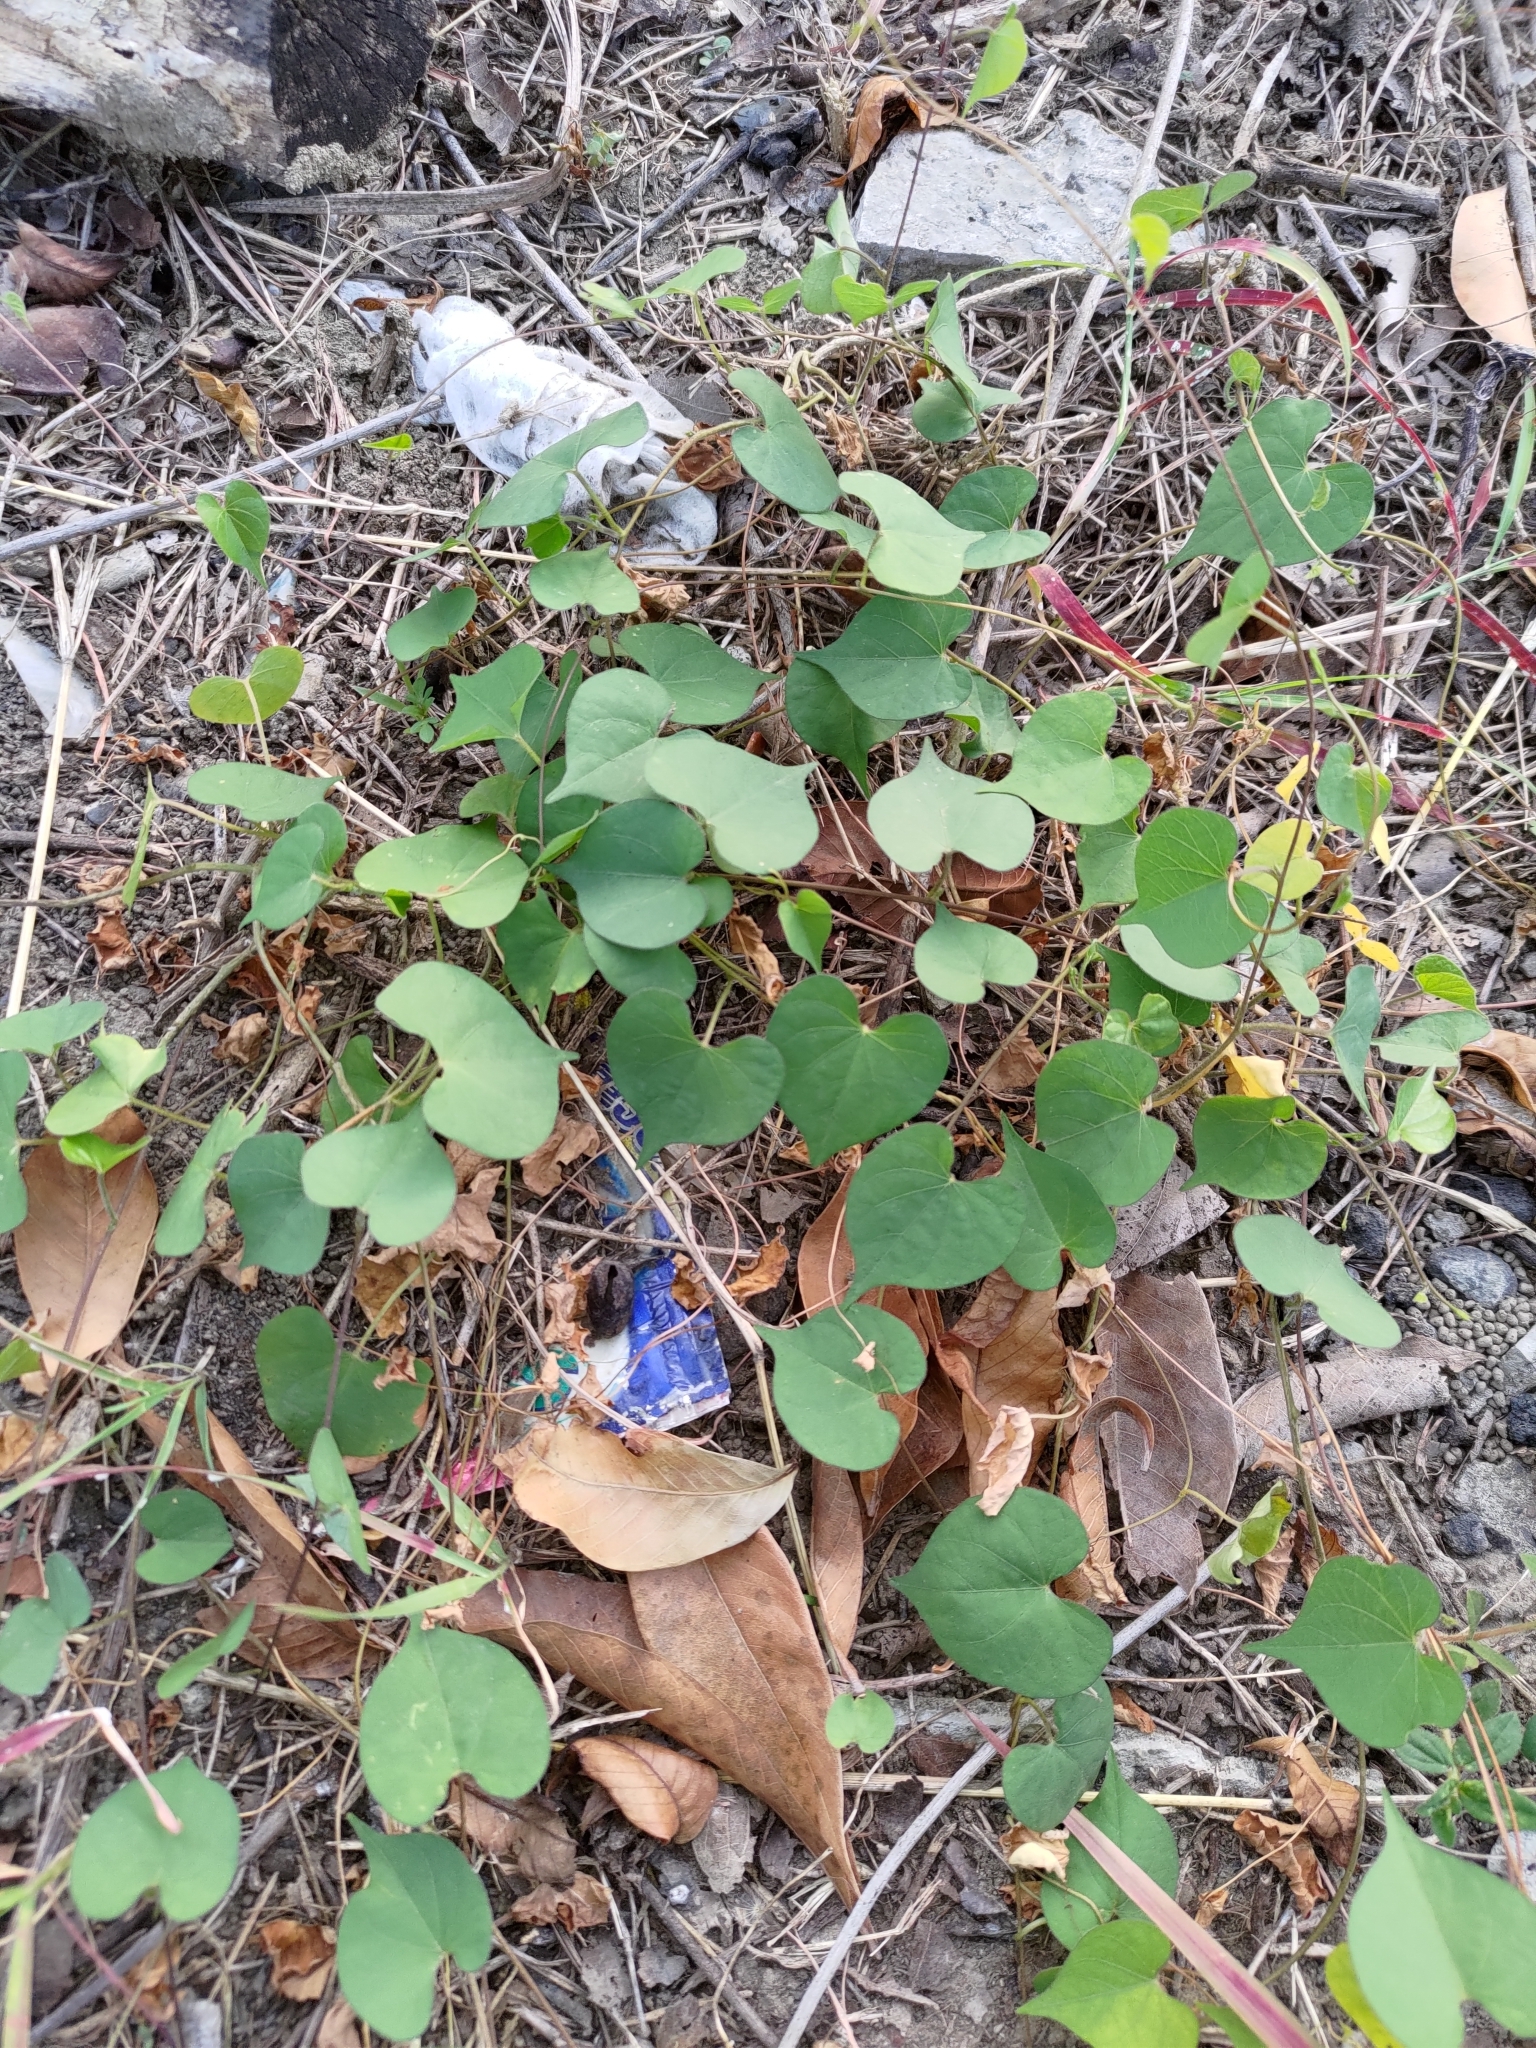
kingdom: Plantae
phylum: Tracheophyta
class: Magnoliopsida
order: Solanales
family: Convolvulaceae
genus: Ipomoea
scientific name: Ipomoea obscura
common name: Obscure morning-glory
